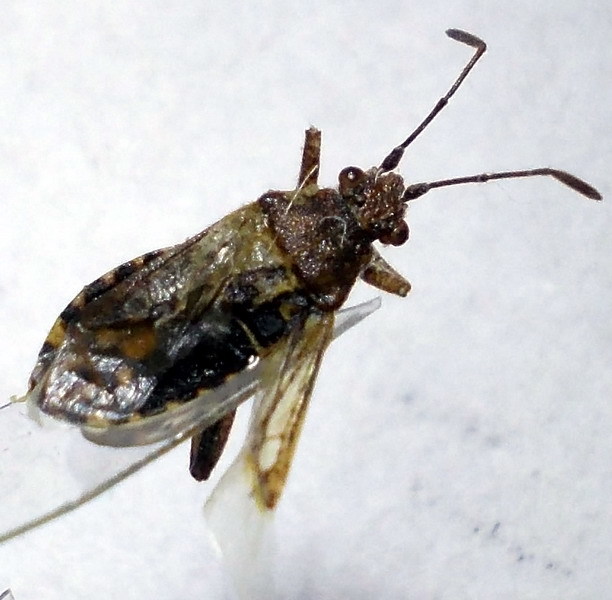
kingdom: Animalia
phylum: Arthropoda
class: Insecta
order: Hemiptera
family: Rhopalidae
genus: Stictopleurus
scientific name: Stictopleurus punctatonervosus
